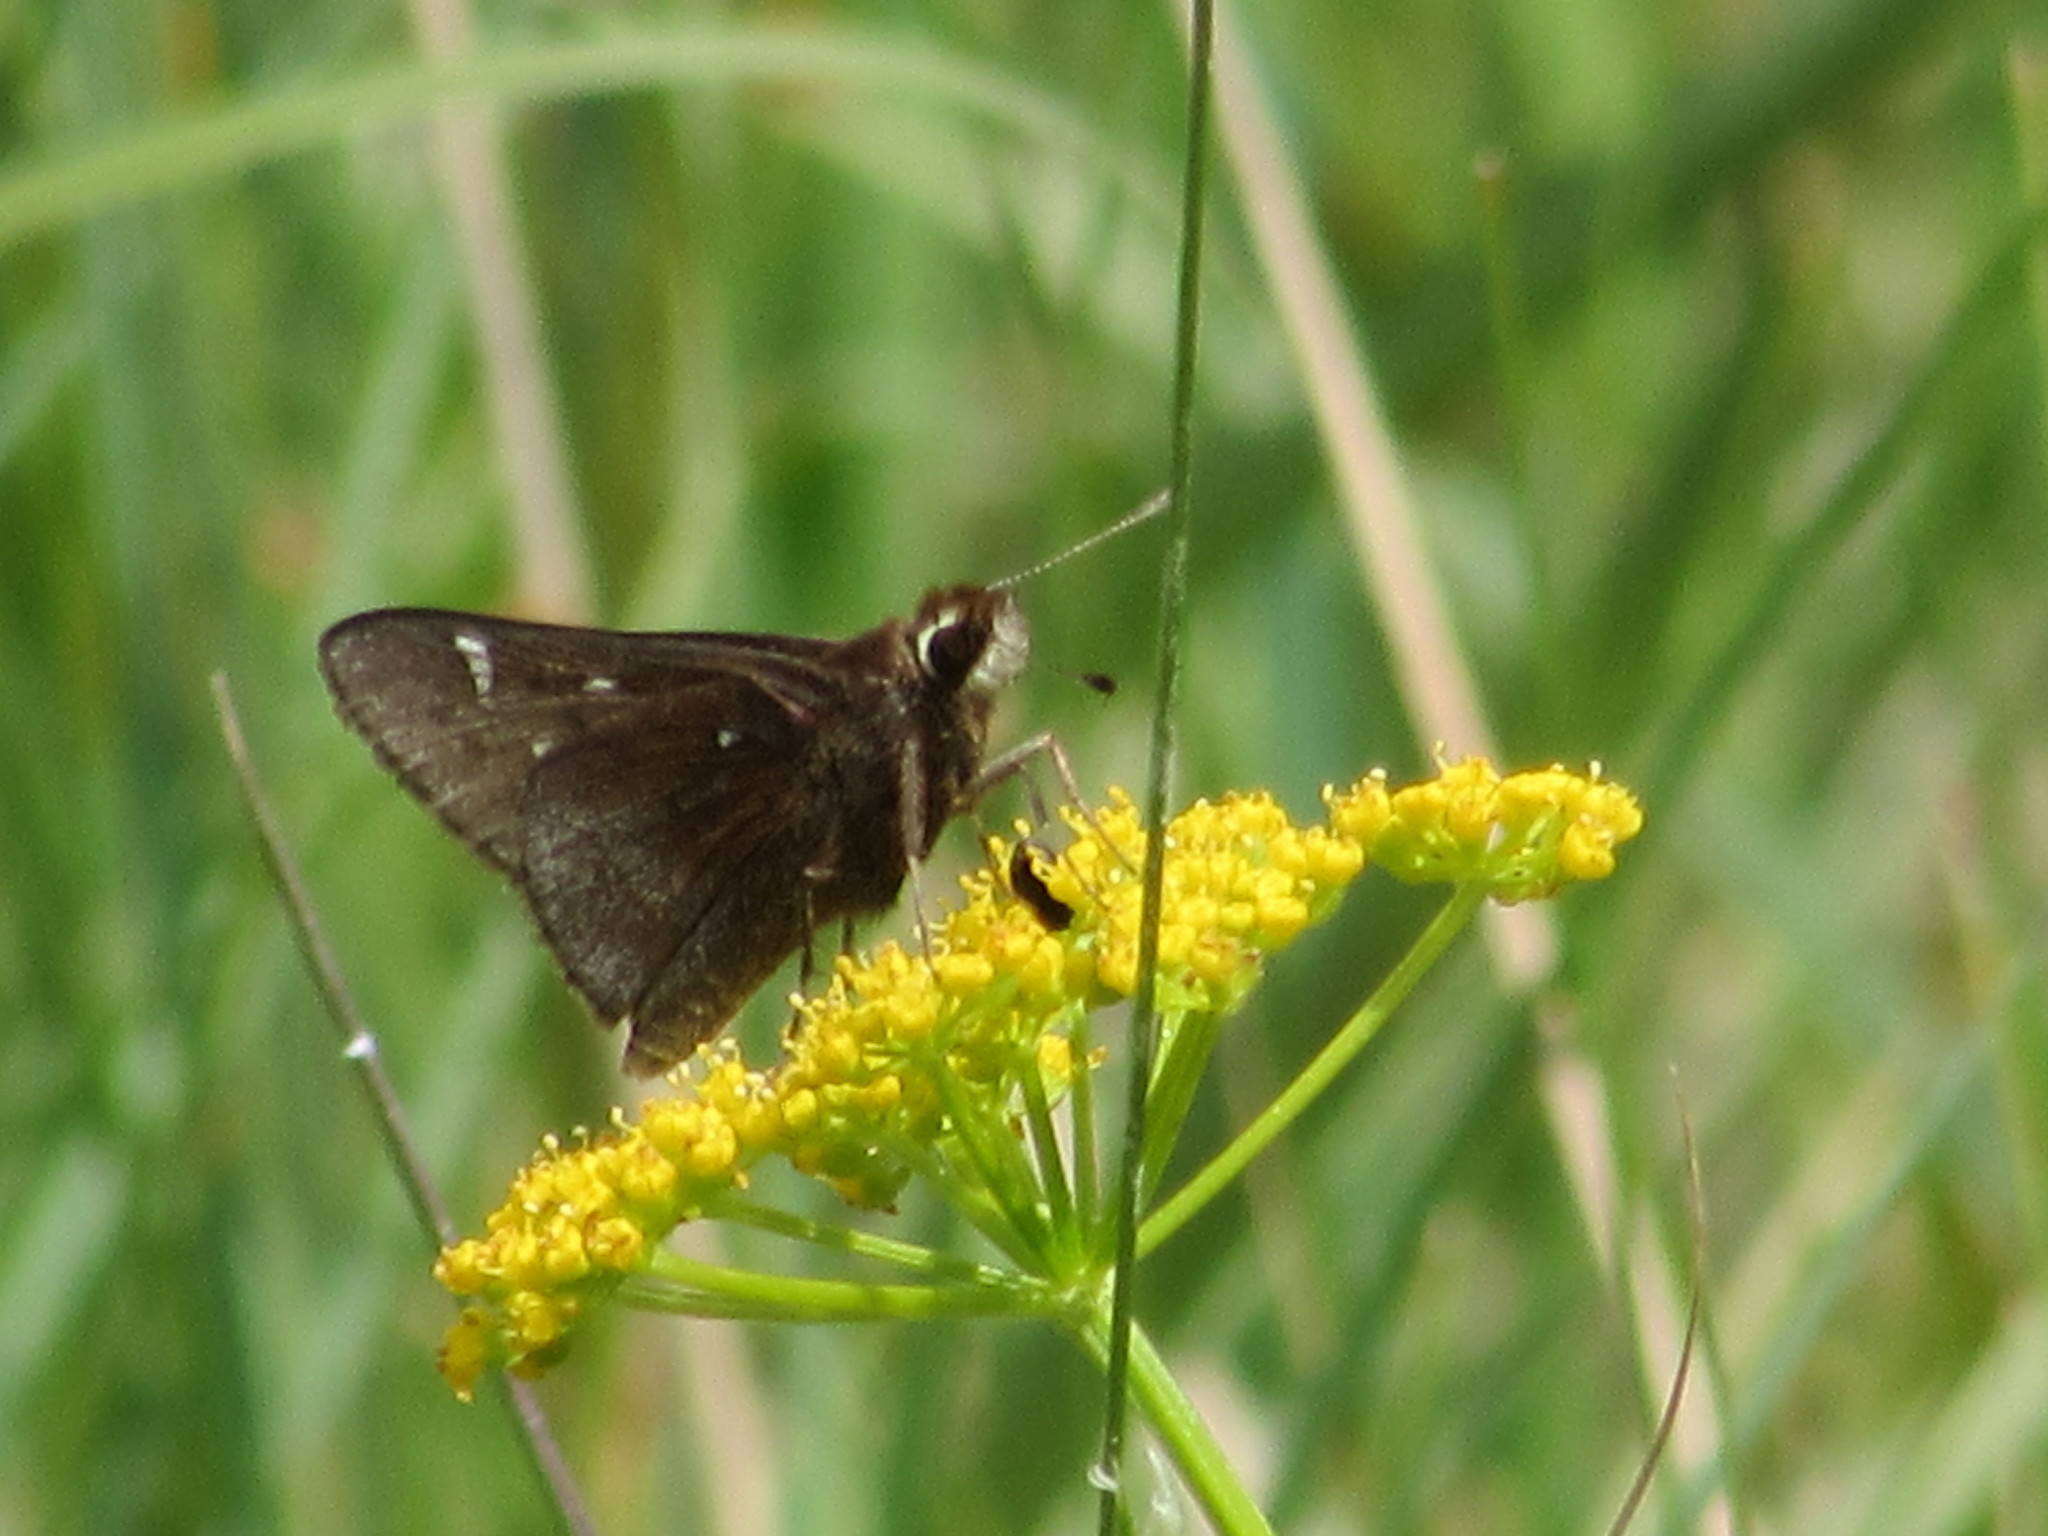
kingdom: Animalia
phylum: Arthropoda
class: Insecta
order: Lepidoptera
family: Hesperiidae
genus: Atrytonopsis
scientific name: Atrytonopsis hianna
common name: Dusted skipper
